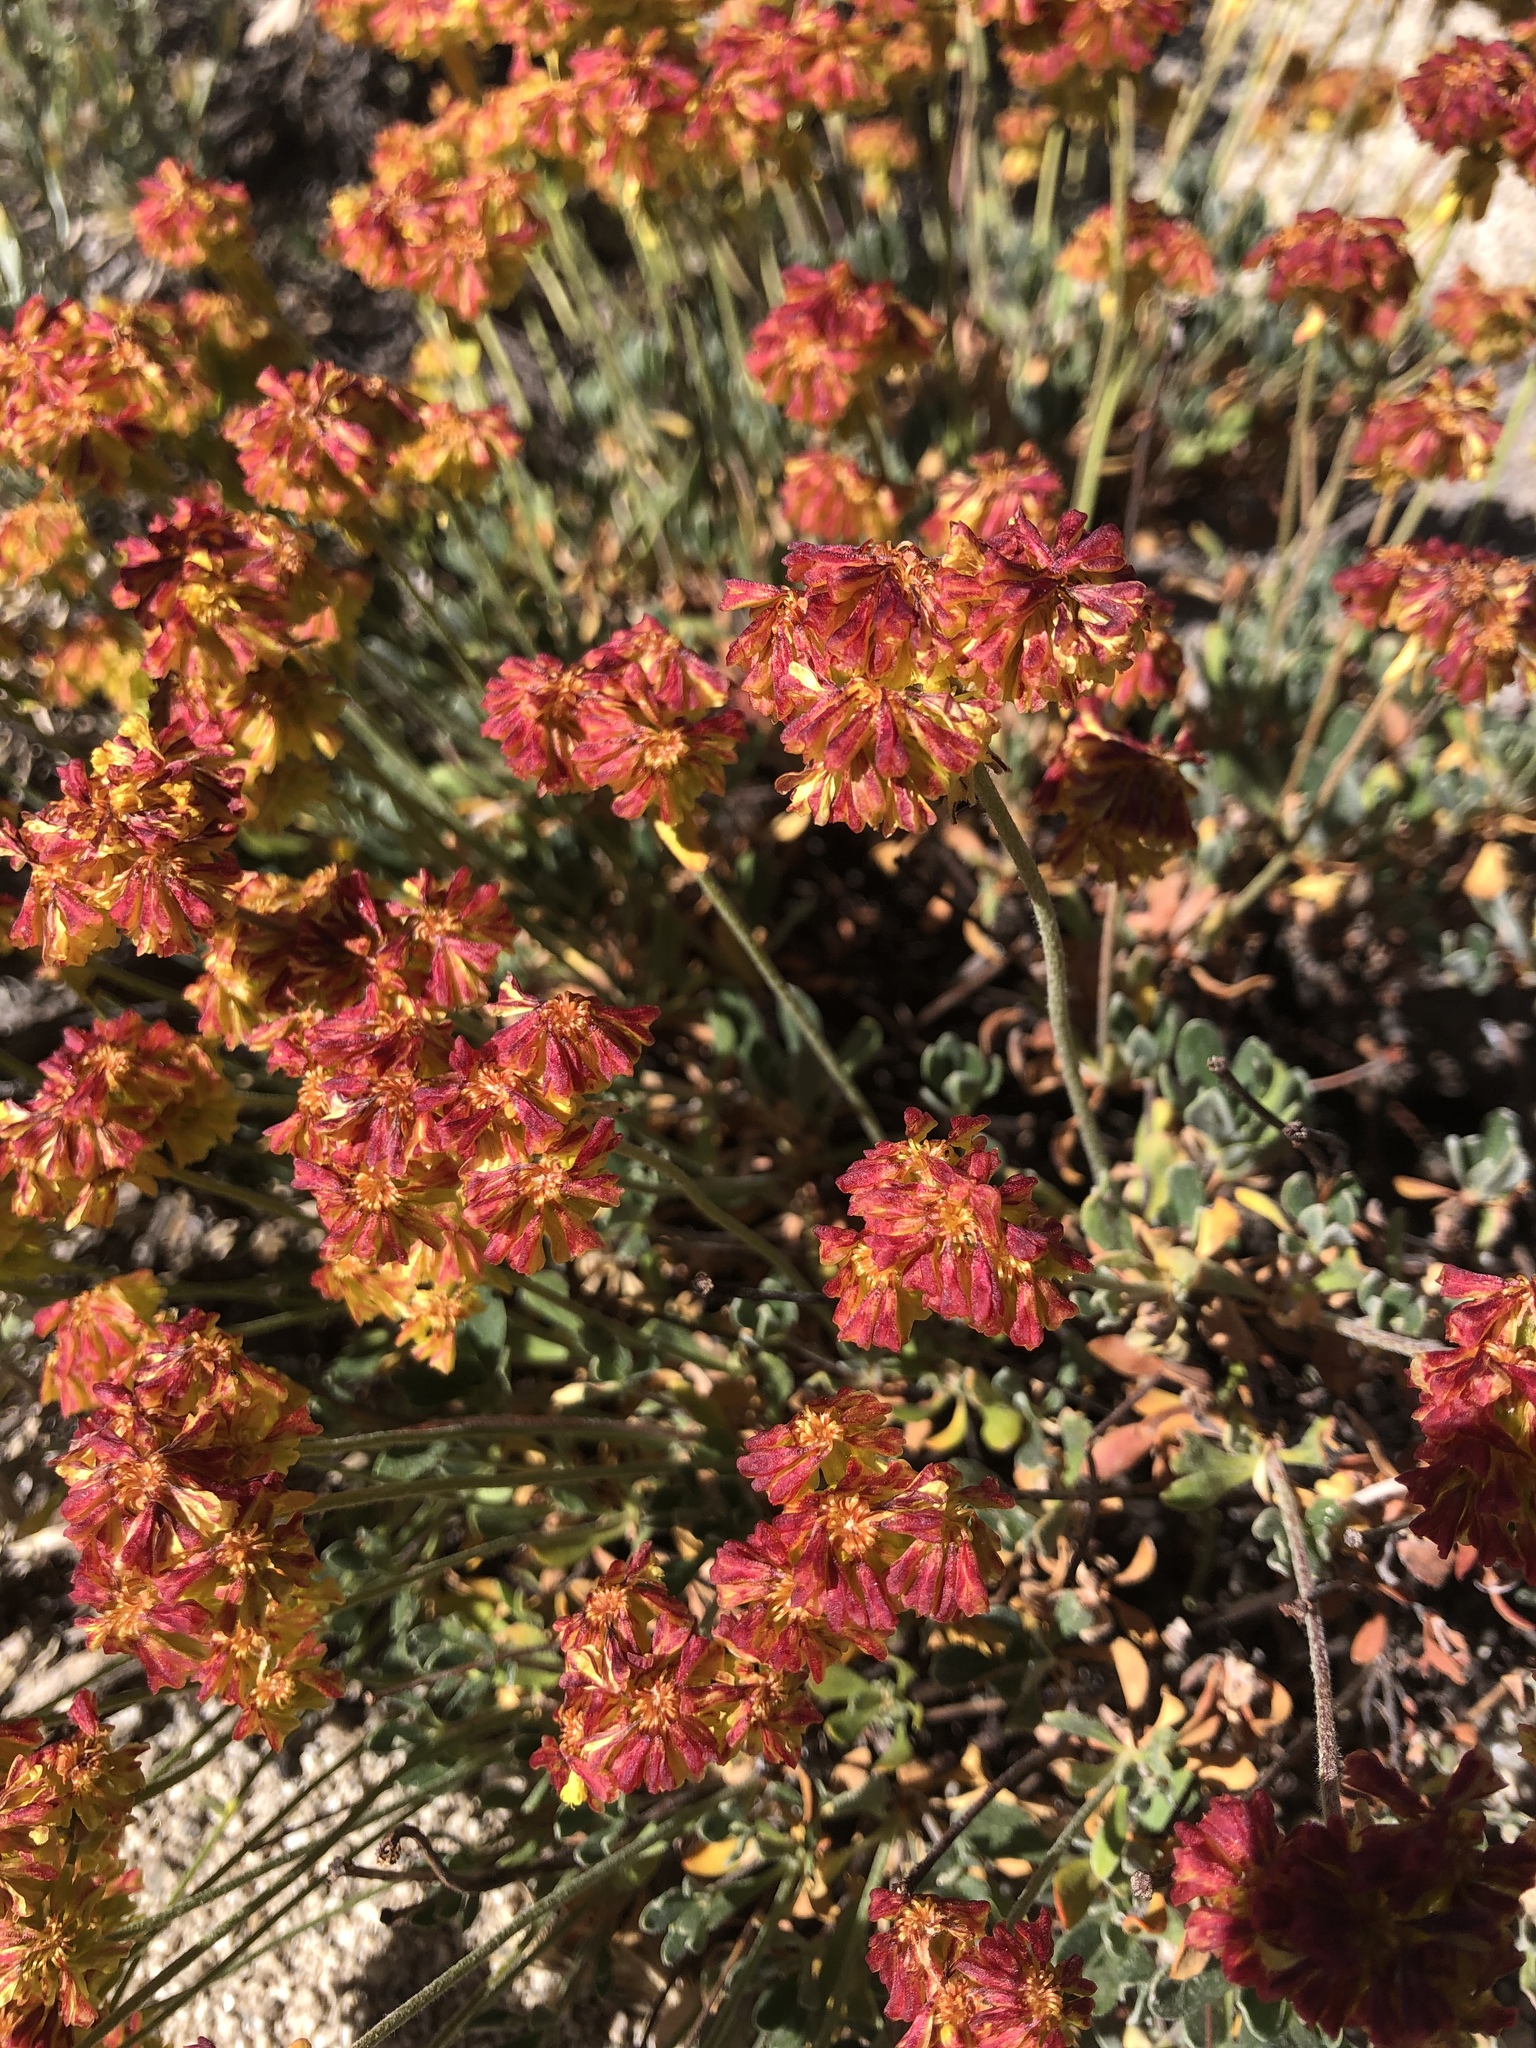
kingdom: Plantae
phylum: Tracheophyta
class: Magnoliopsida
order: Caryophyllales
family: Polygonaceae
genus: Eriogonum
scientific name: Eriogonum umbellatum
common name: Sulfur-buckwheat
